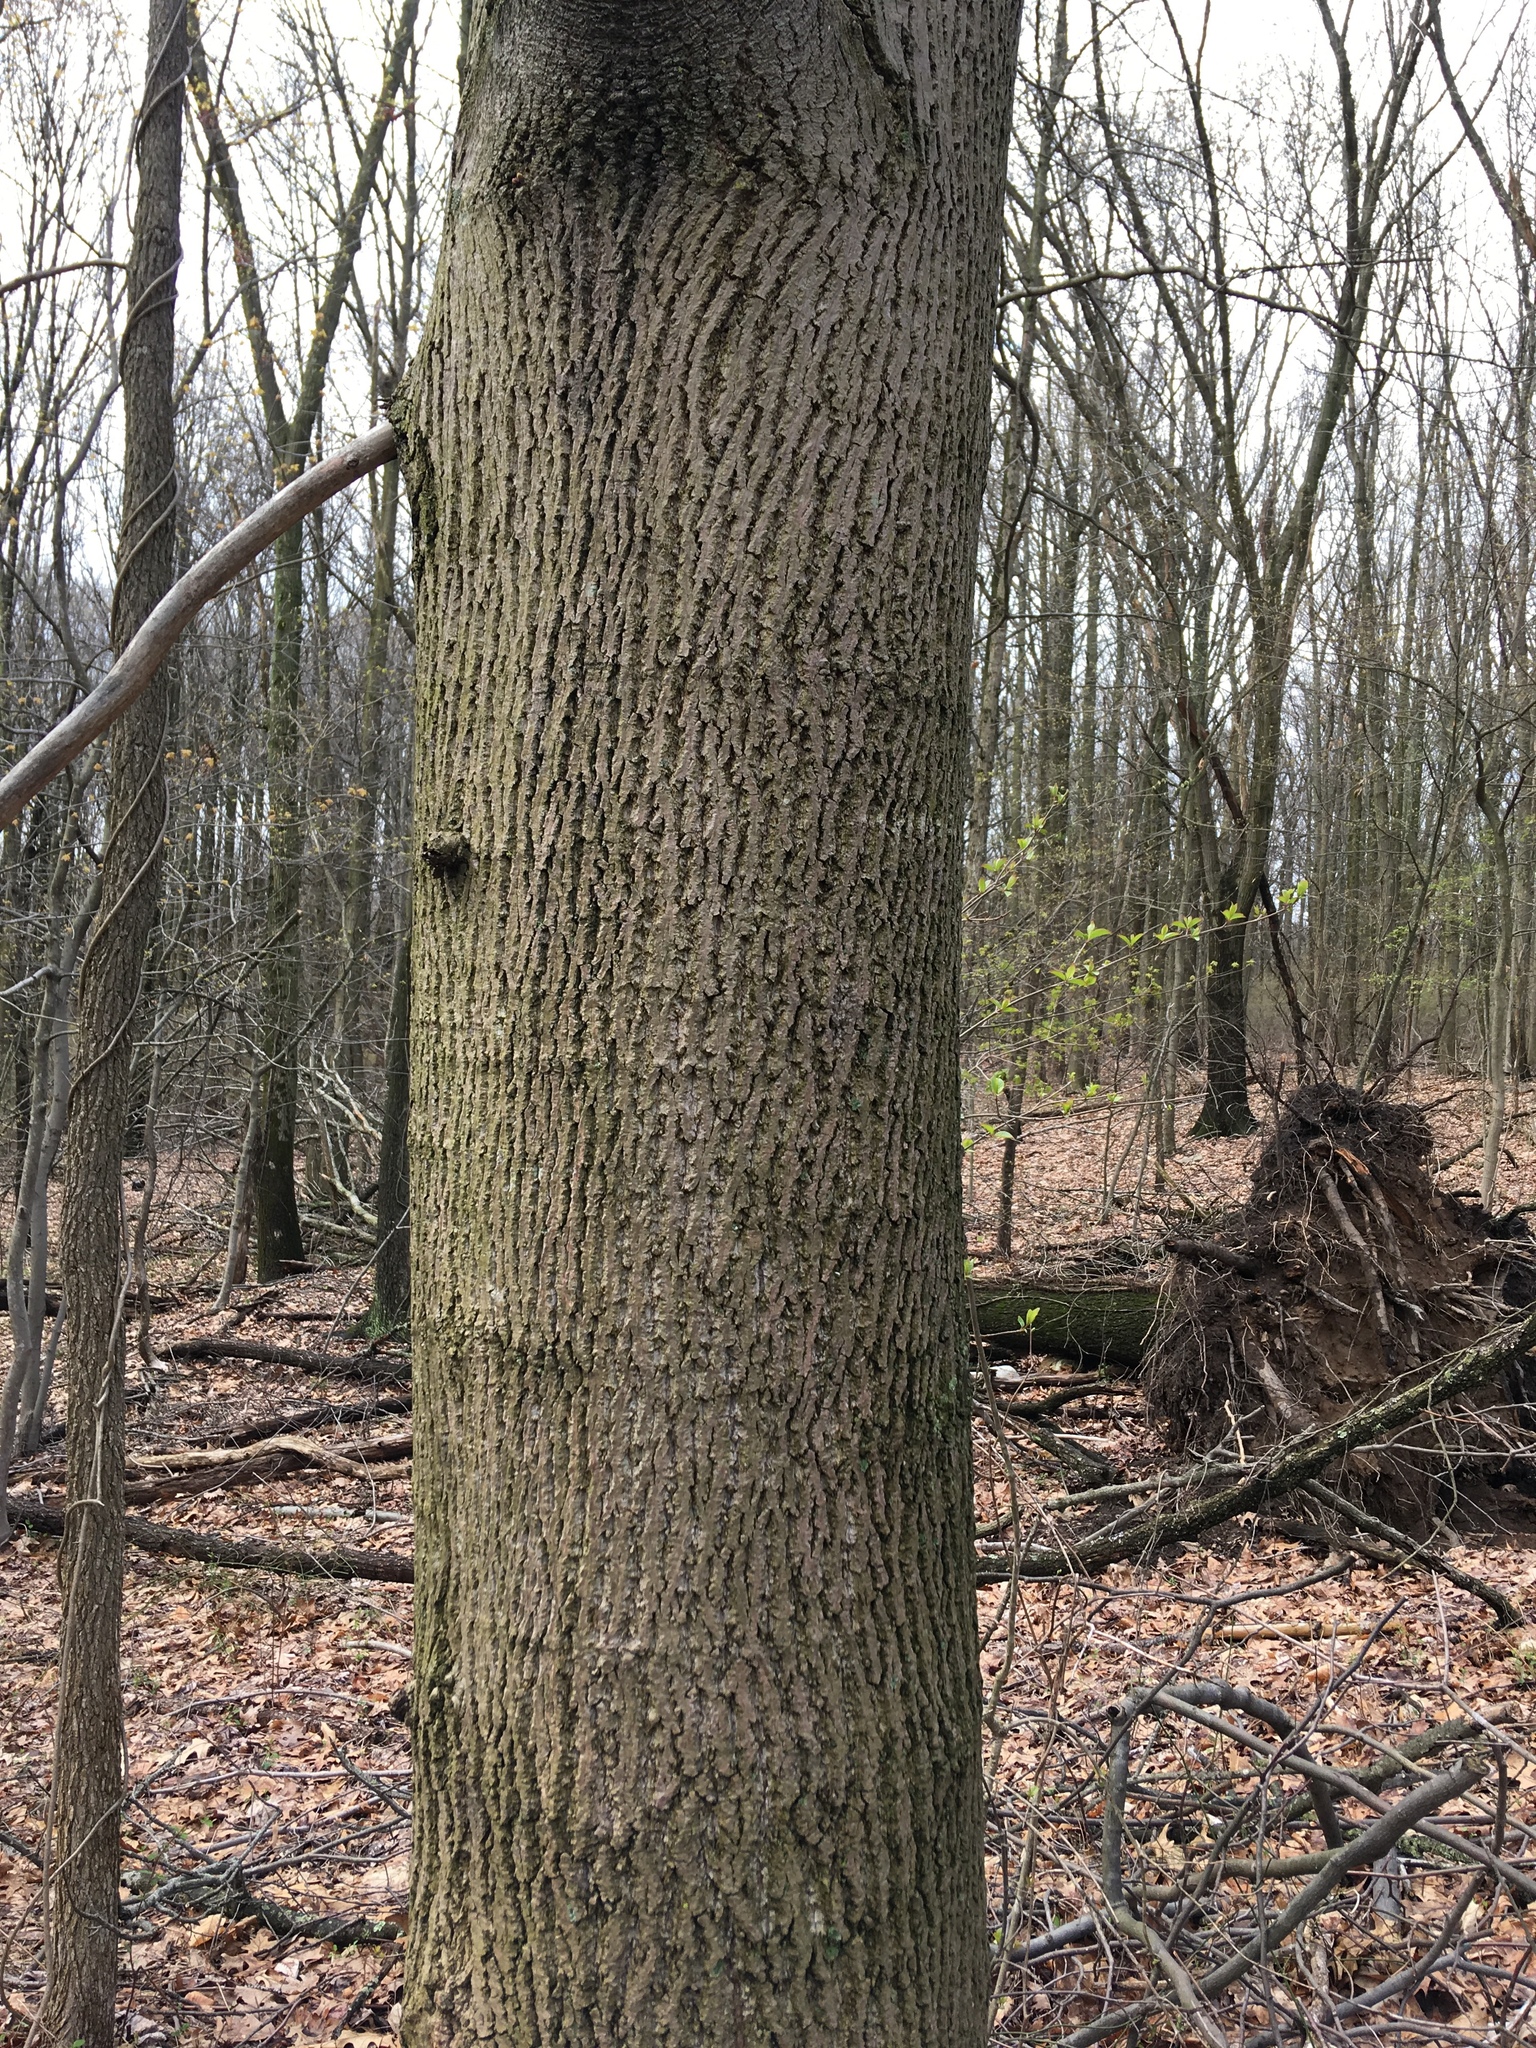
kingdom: Plantae
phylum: Tracheophyta
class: Magnoliopsida
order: Magnoliales
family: Magnoliaceae
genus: Liriodendron
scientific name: Liriodendron tulipifera
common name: Tulip tree
